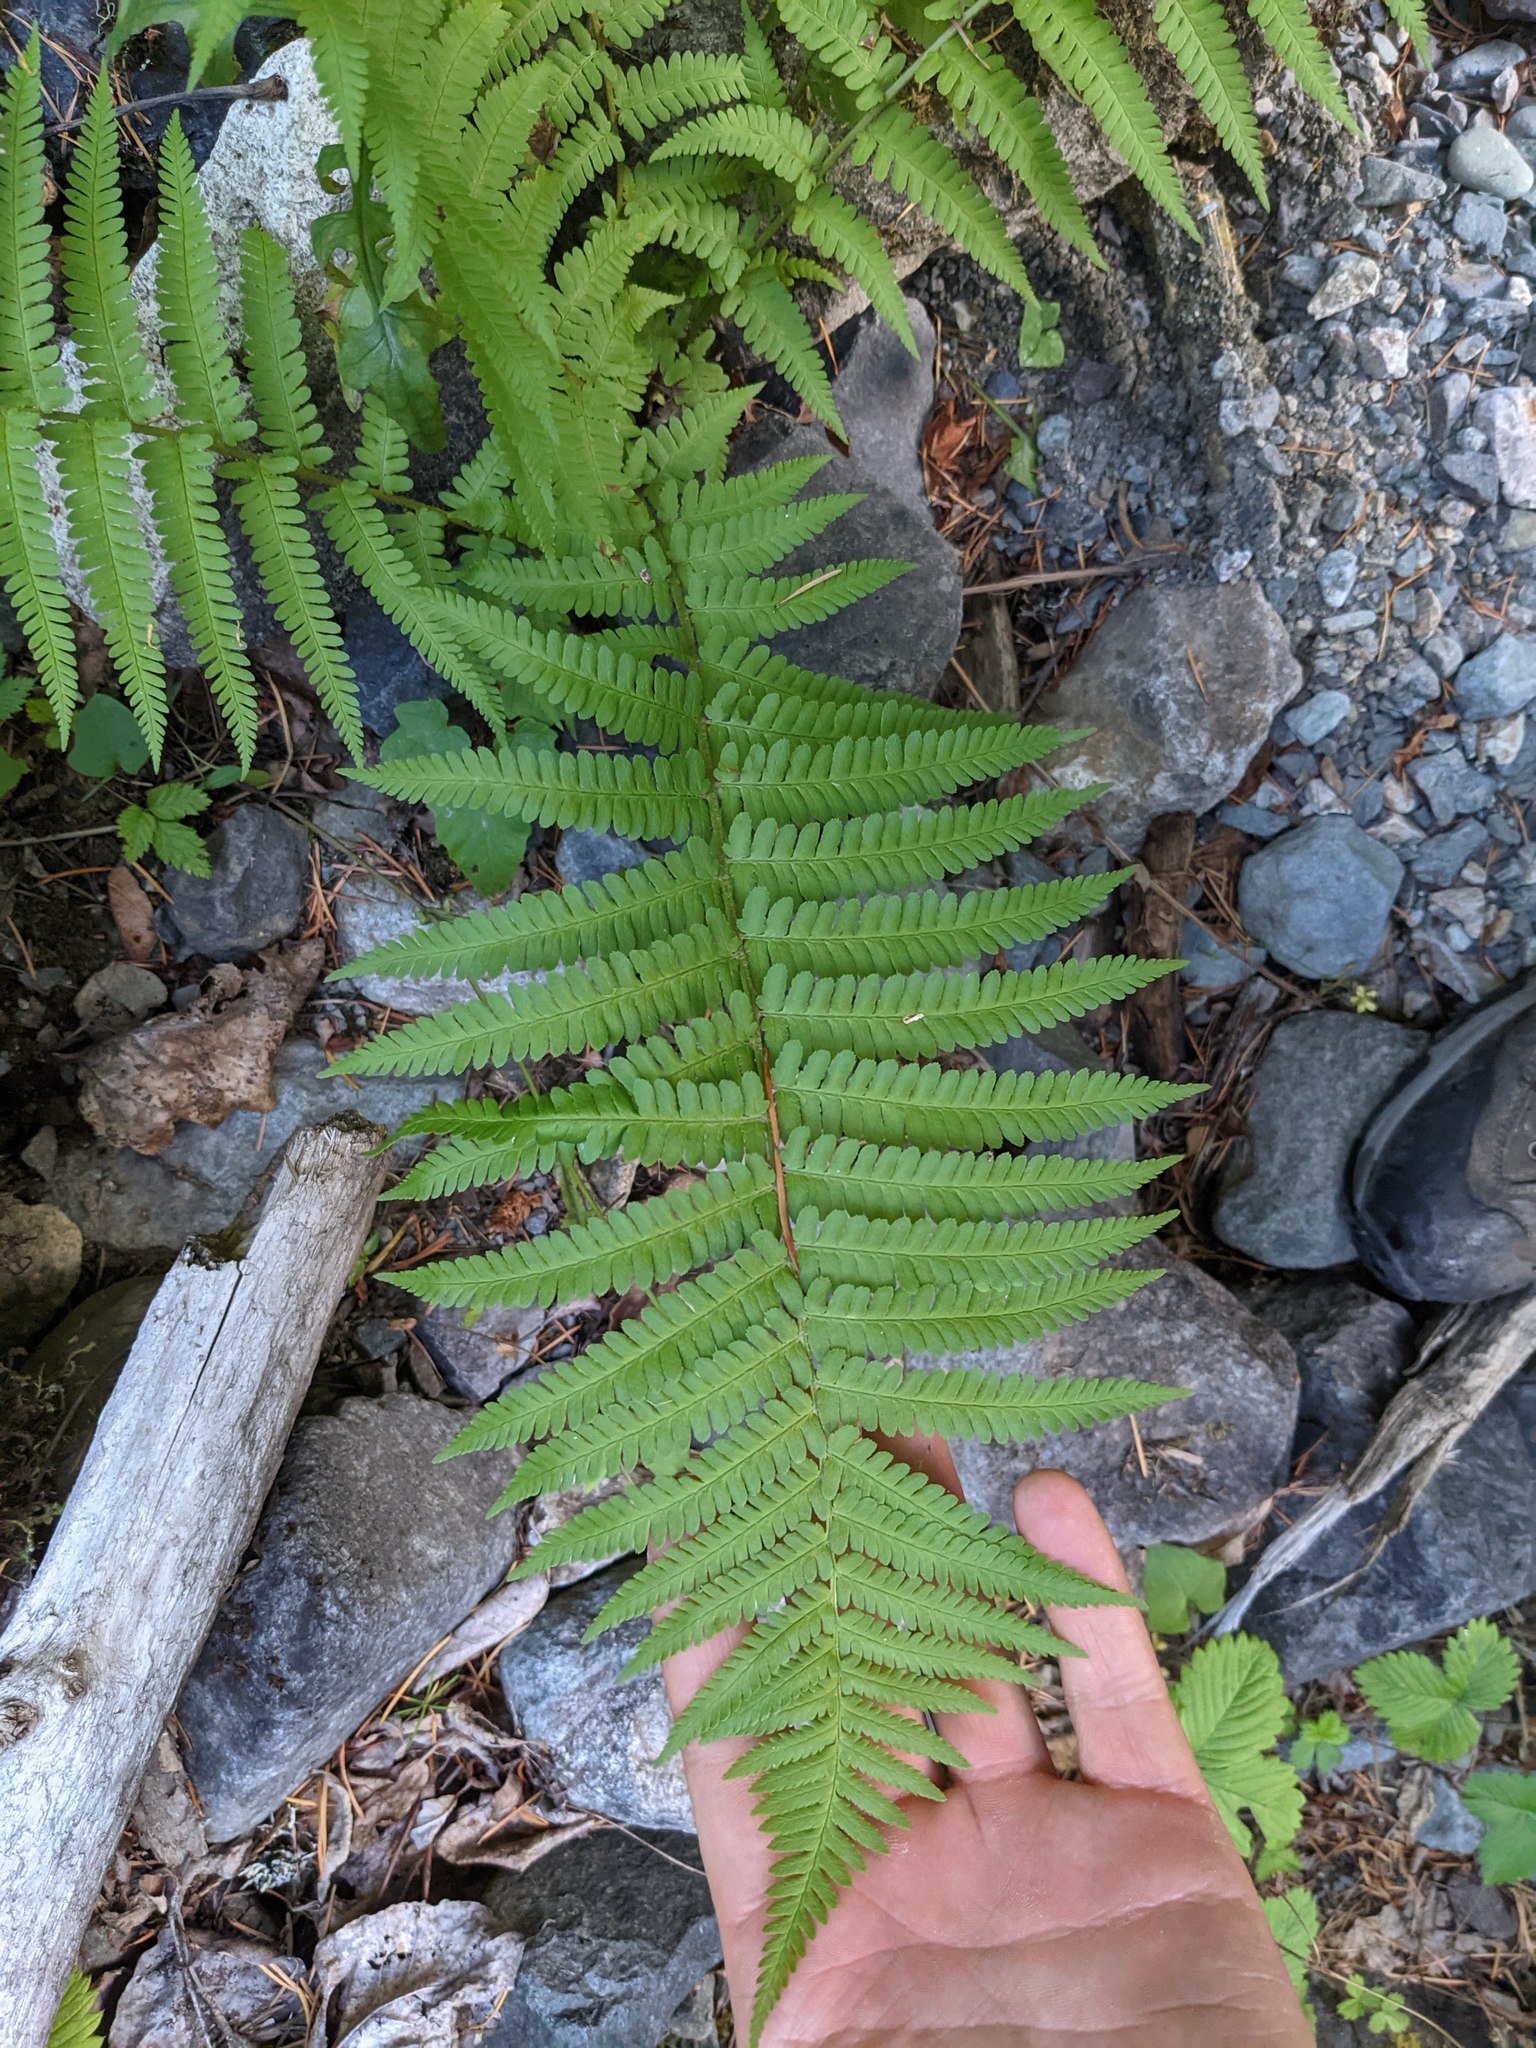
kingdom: Plantae
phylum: Tracheophyta
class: Polypodiopsida
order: Polypodiales
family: Dryopteridaceae
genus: Dryopteris
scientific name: Dryopteris filix-mas
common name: Male fern
